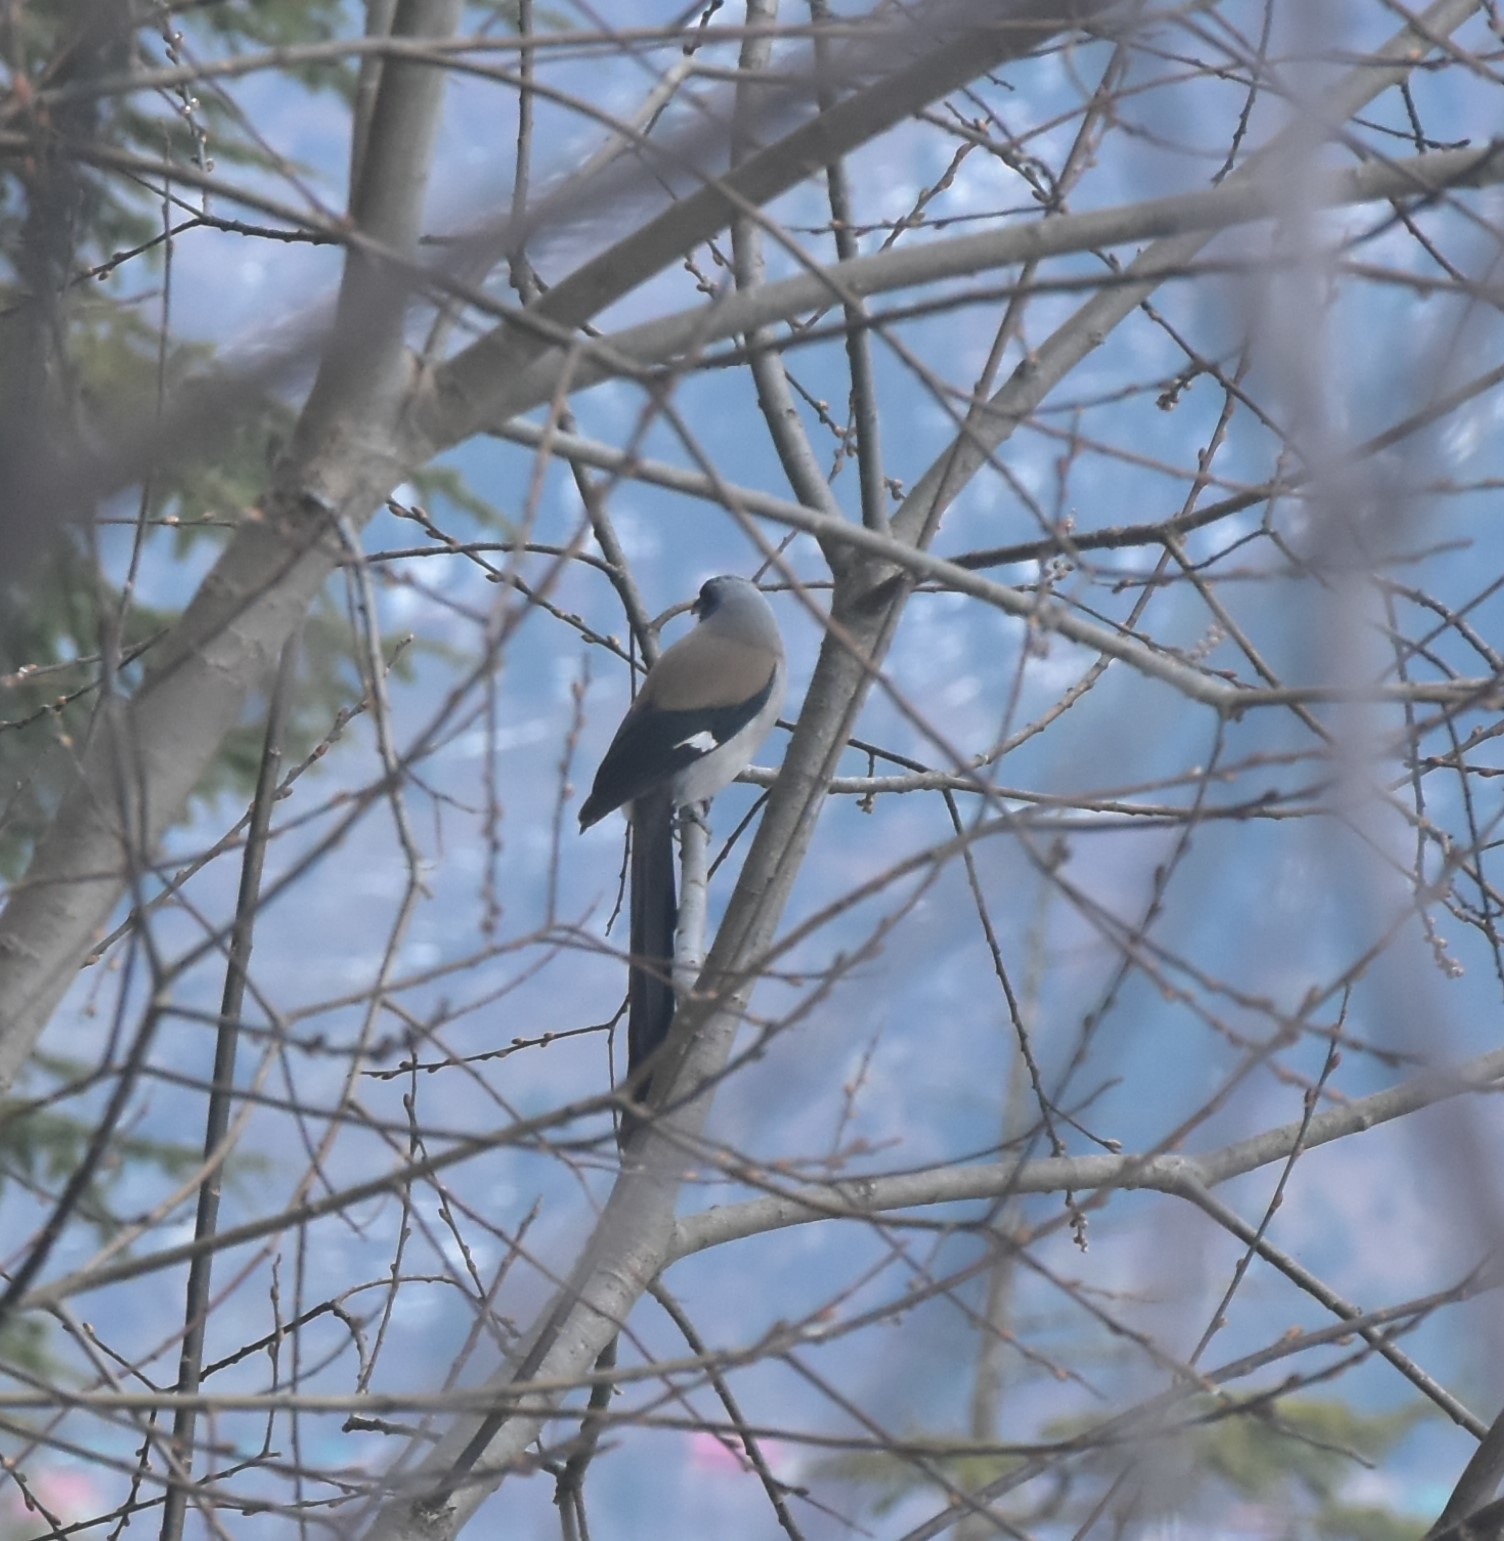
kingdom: Animalia
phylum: Chordata
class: Aves
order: Passeriformes
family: Corvidae
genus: Dendrocitta
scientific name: Dendrocitta formosae
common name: Grey treepie
